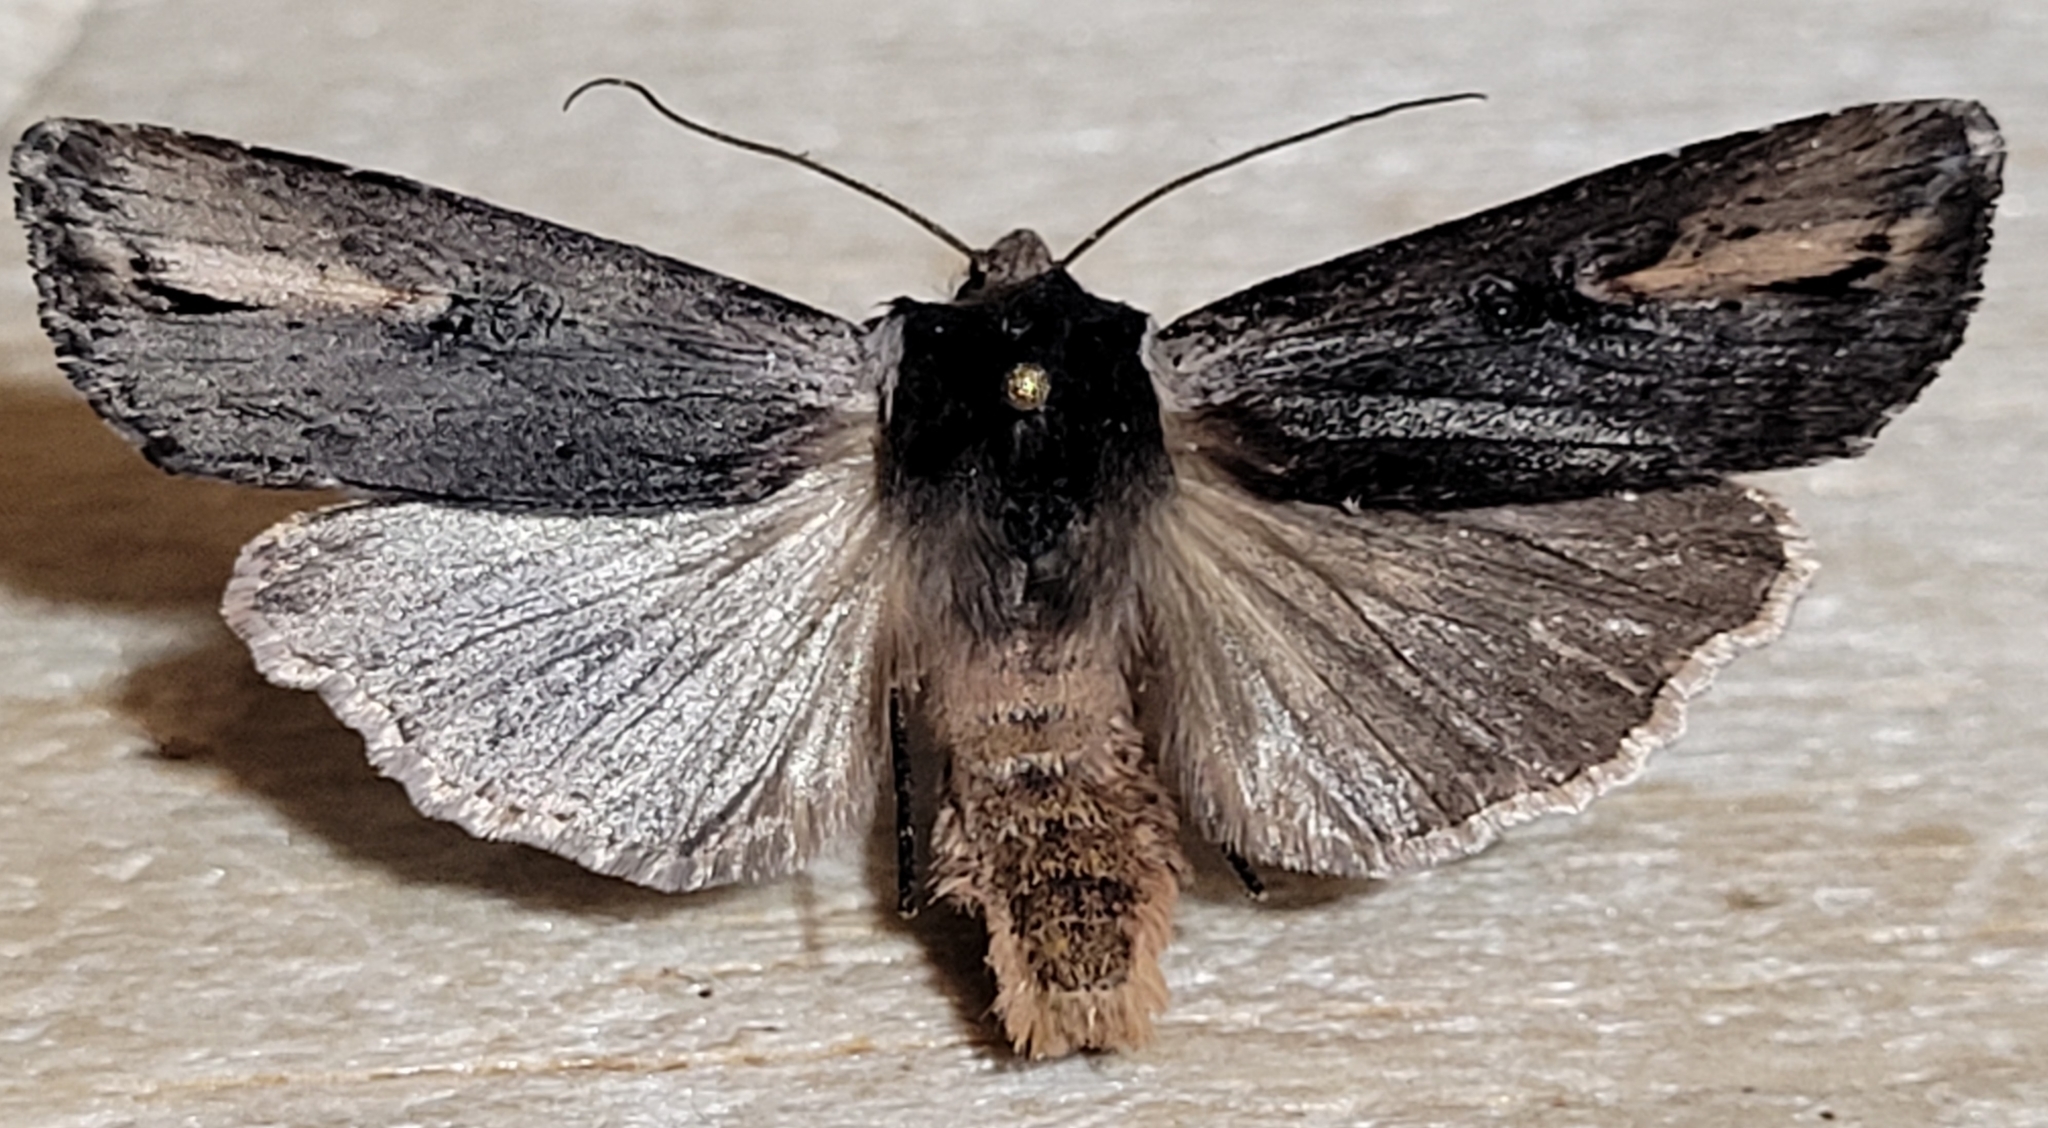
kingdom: Animalia
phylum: Arthropoda
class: Insecta
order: Lepidoptera
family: Noctuidae
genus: Xylena
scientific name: Xylena cineritia
